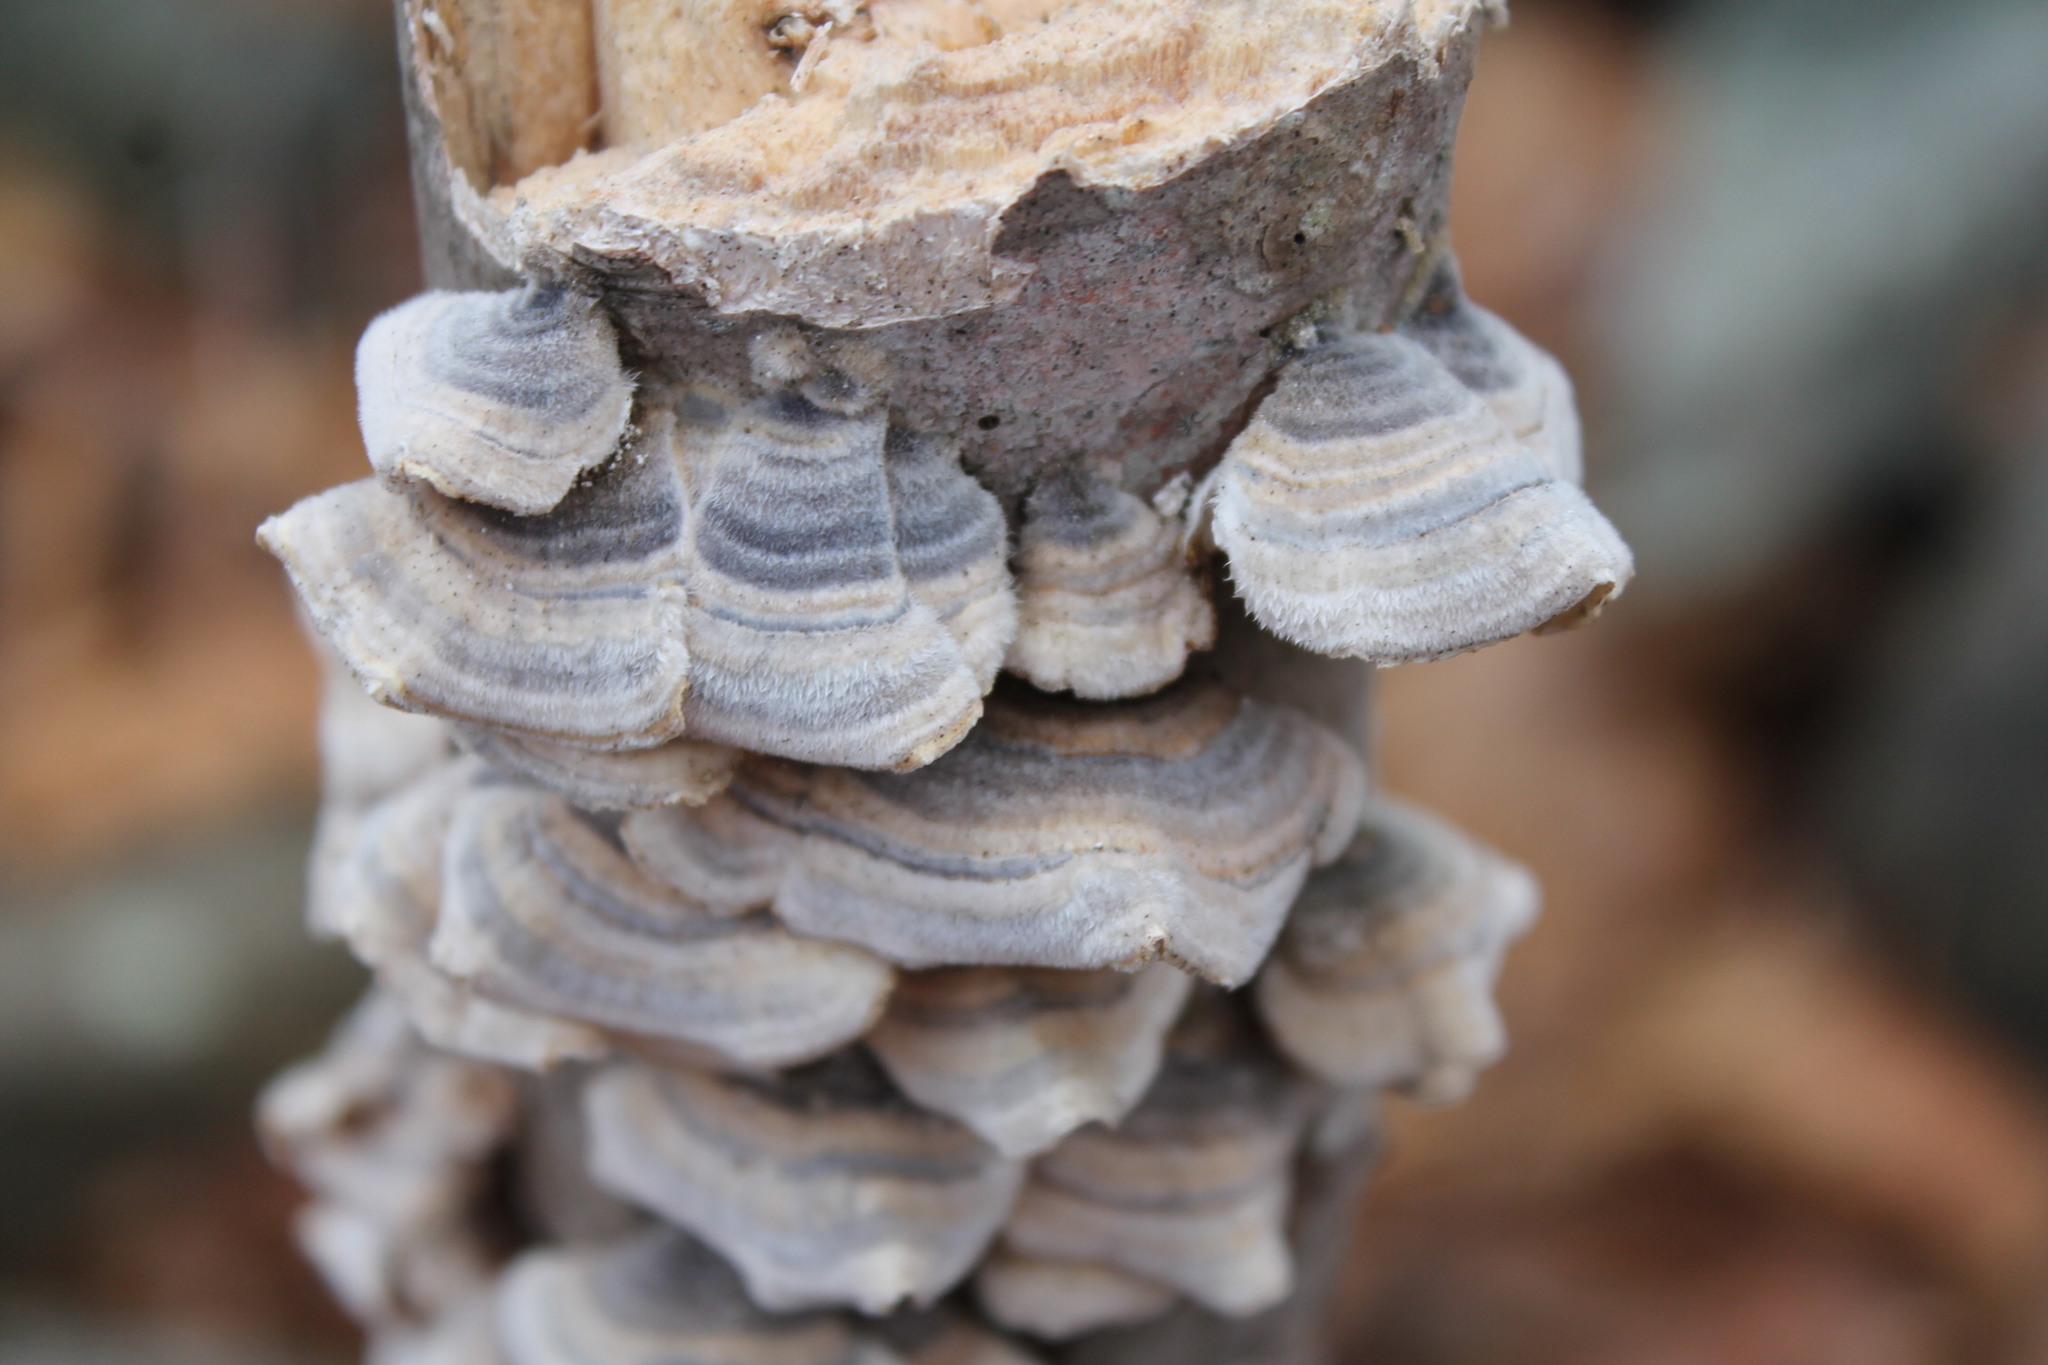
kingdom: Fungi
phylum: Basidiomycota
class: Agaricomycetes
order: Polyporales
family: Polyporaceae
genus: Trametes
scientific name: Trametes versicolor
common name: Turkeytail
